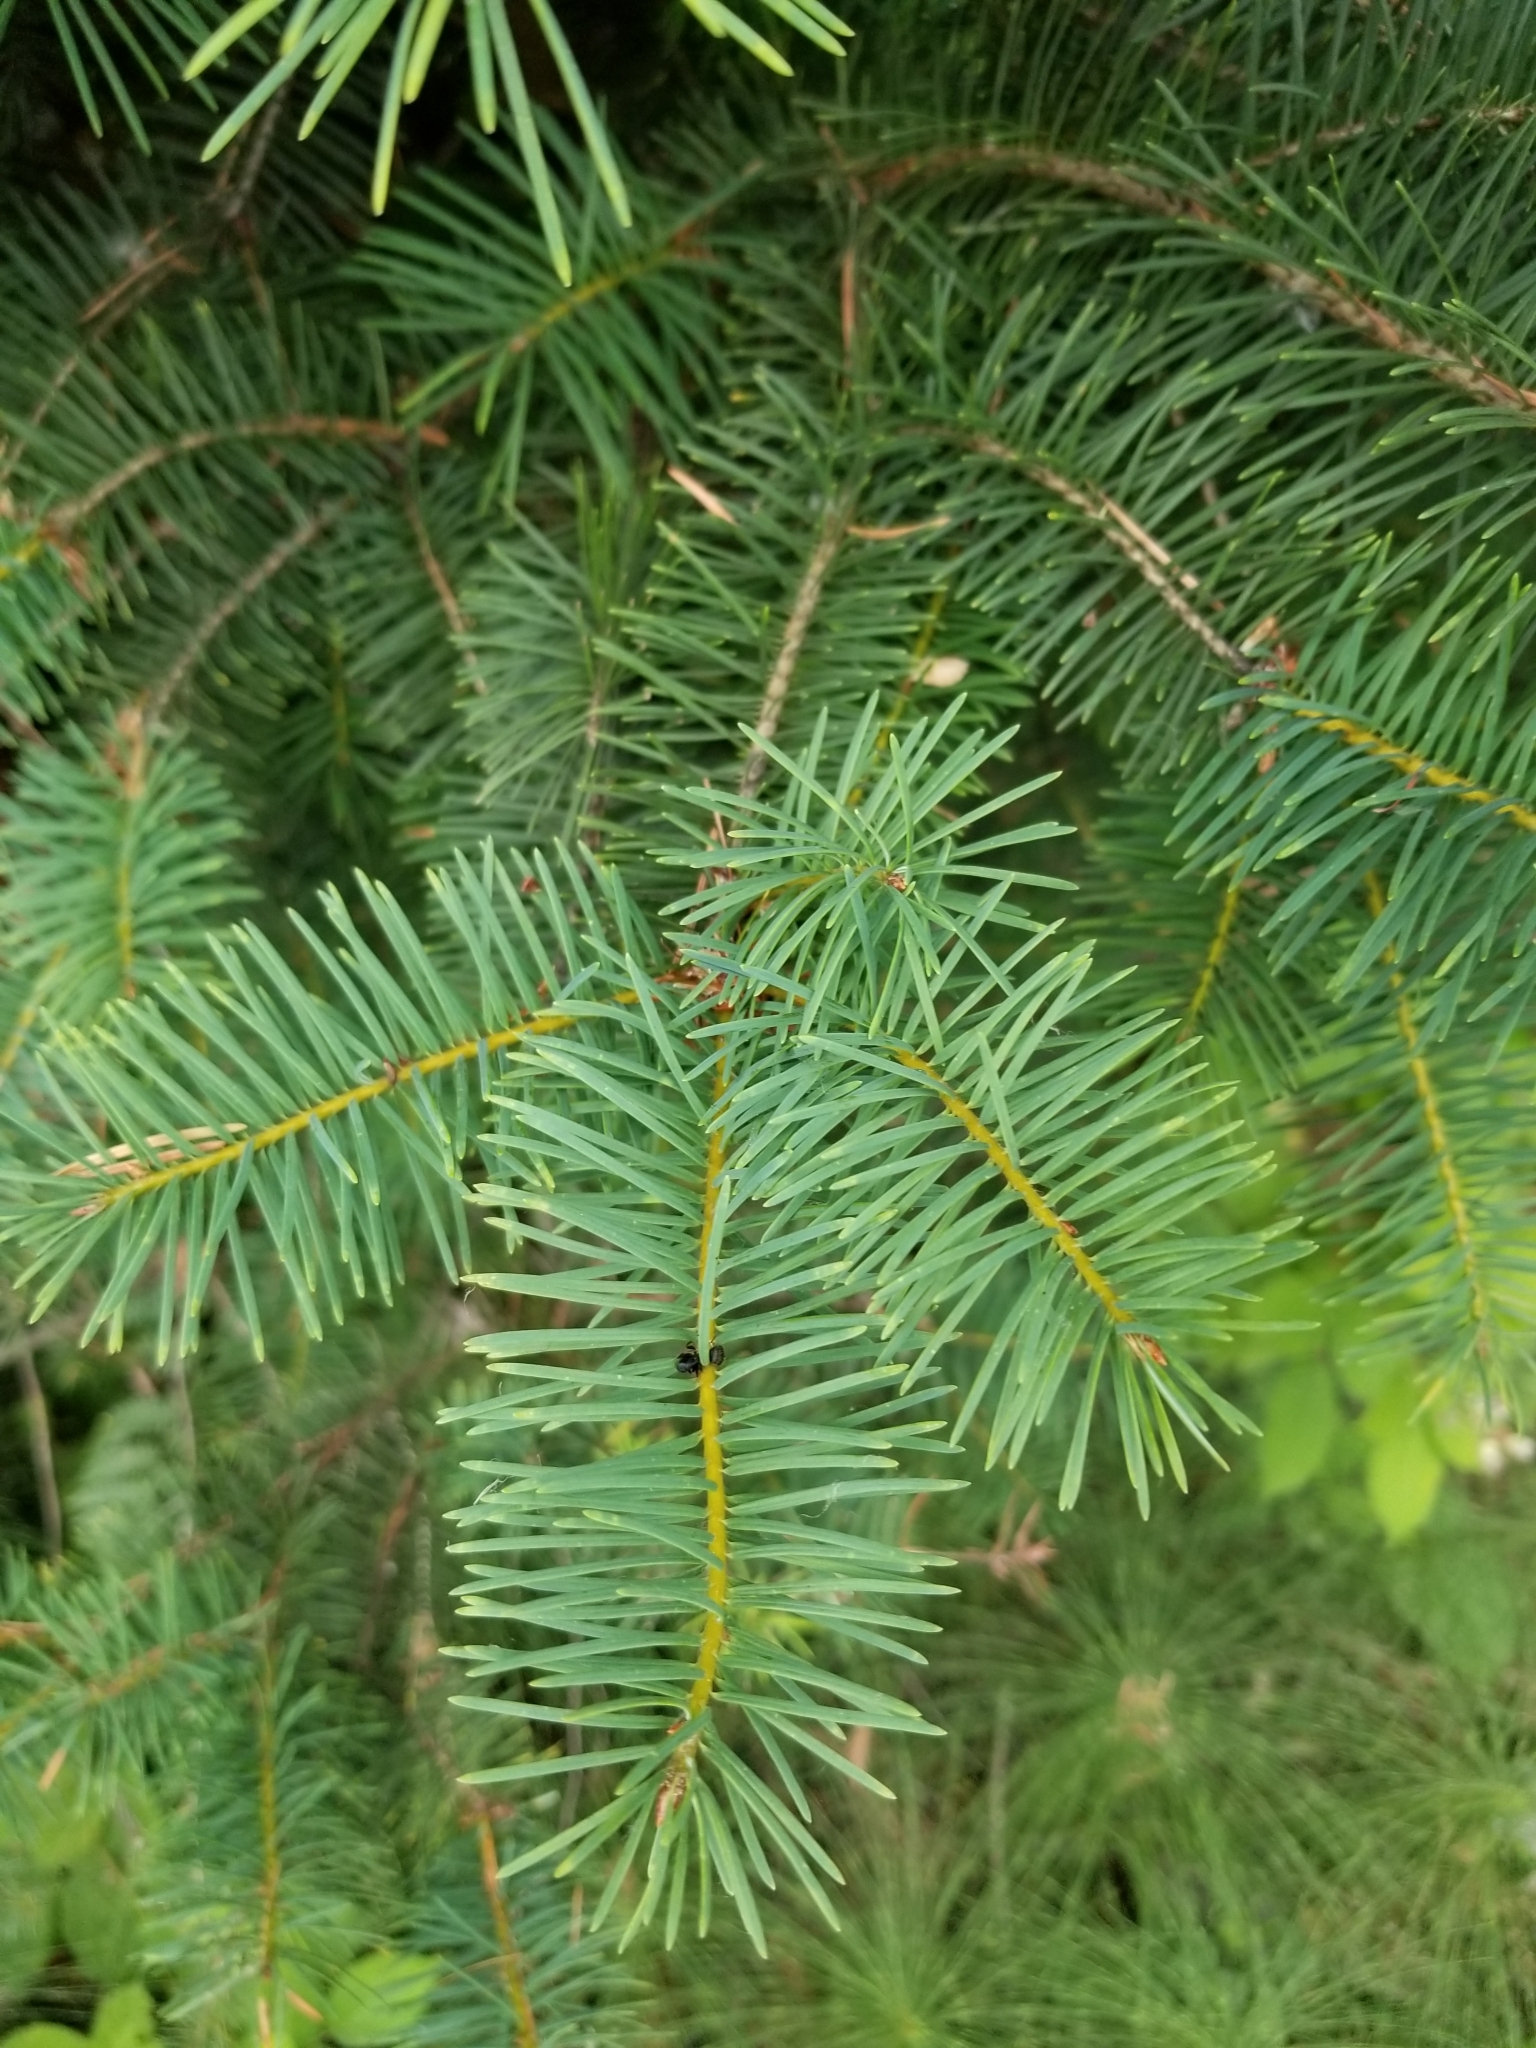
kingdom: Plantae
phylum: Tracheophyta
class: Pinopsida
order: Pinales
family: Pinaceae
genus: Pseudotsuga
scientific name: Pseudotsuga menziesii
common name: Douglas fir
